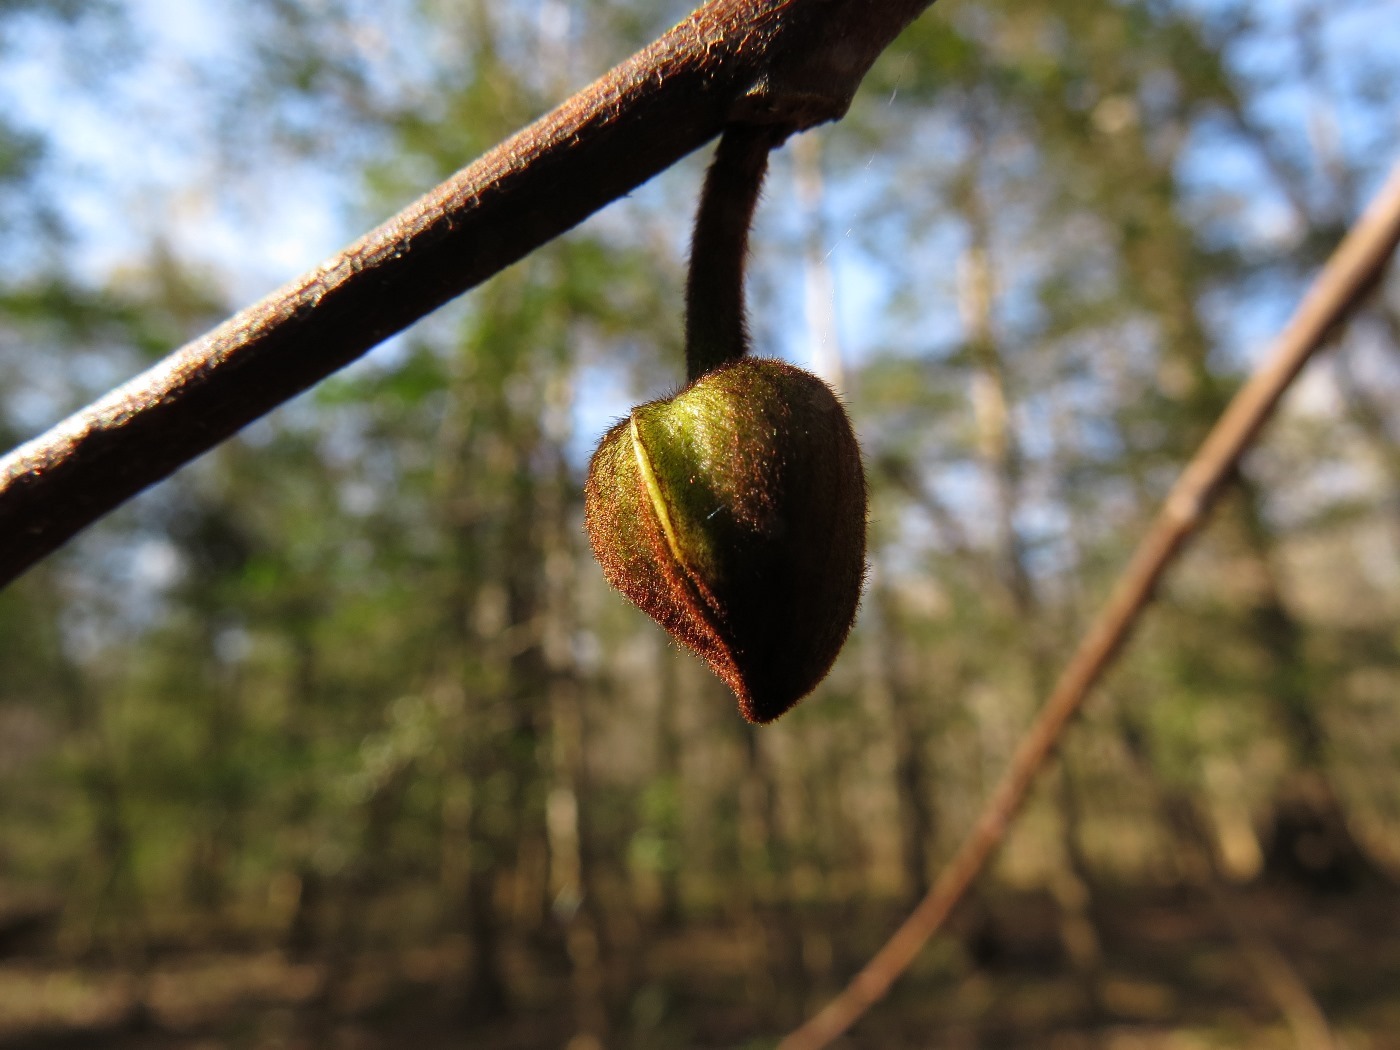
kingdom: Plantae
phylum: Tracheophyta
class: Magnoliopsida
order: Magnoliales
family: Annonaceae
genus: Asimina
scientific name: Asimina triloba
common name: Dog-banana
